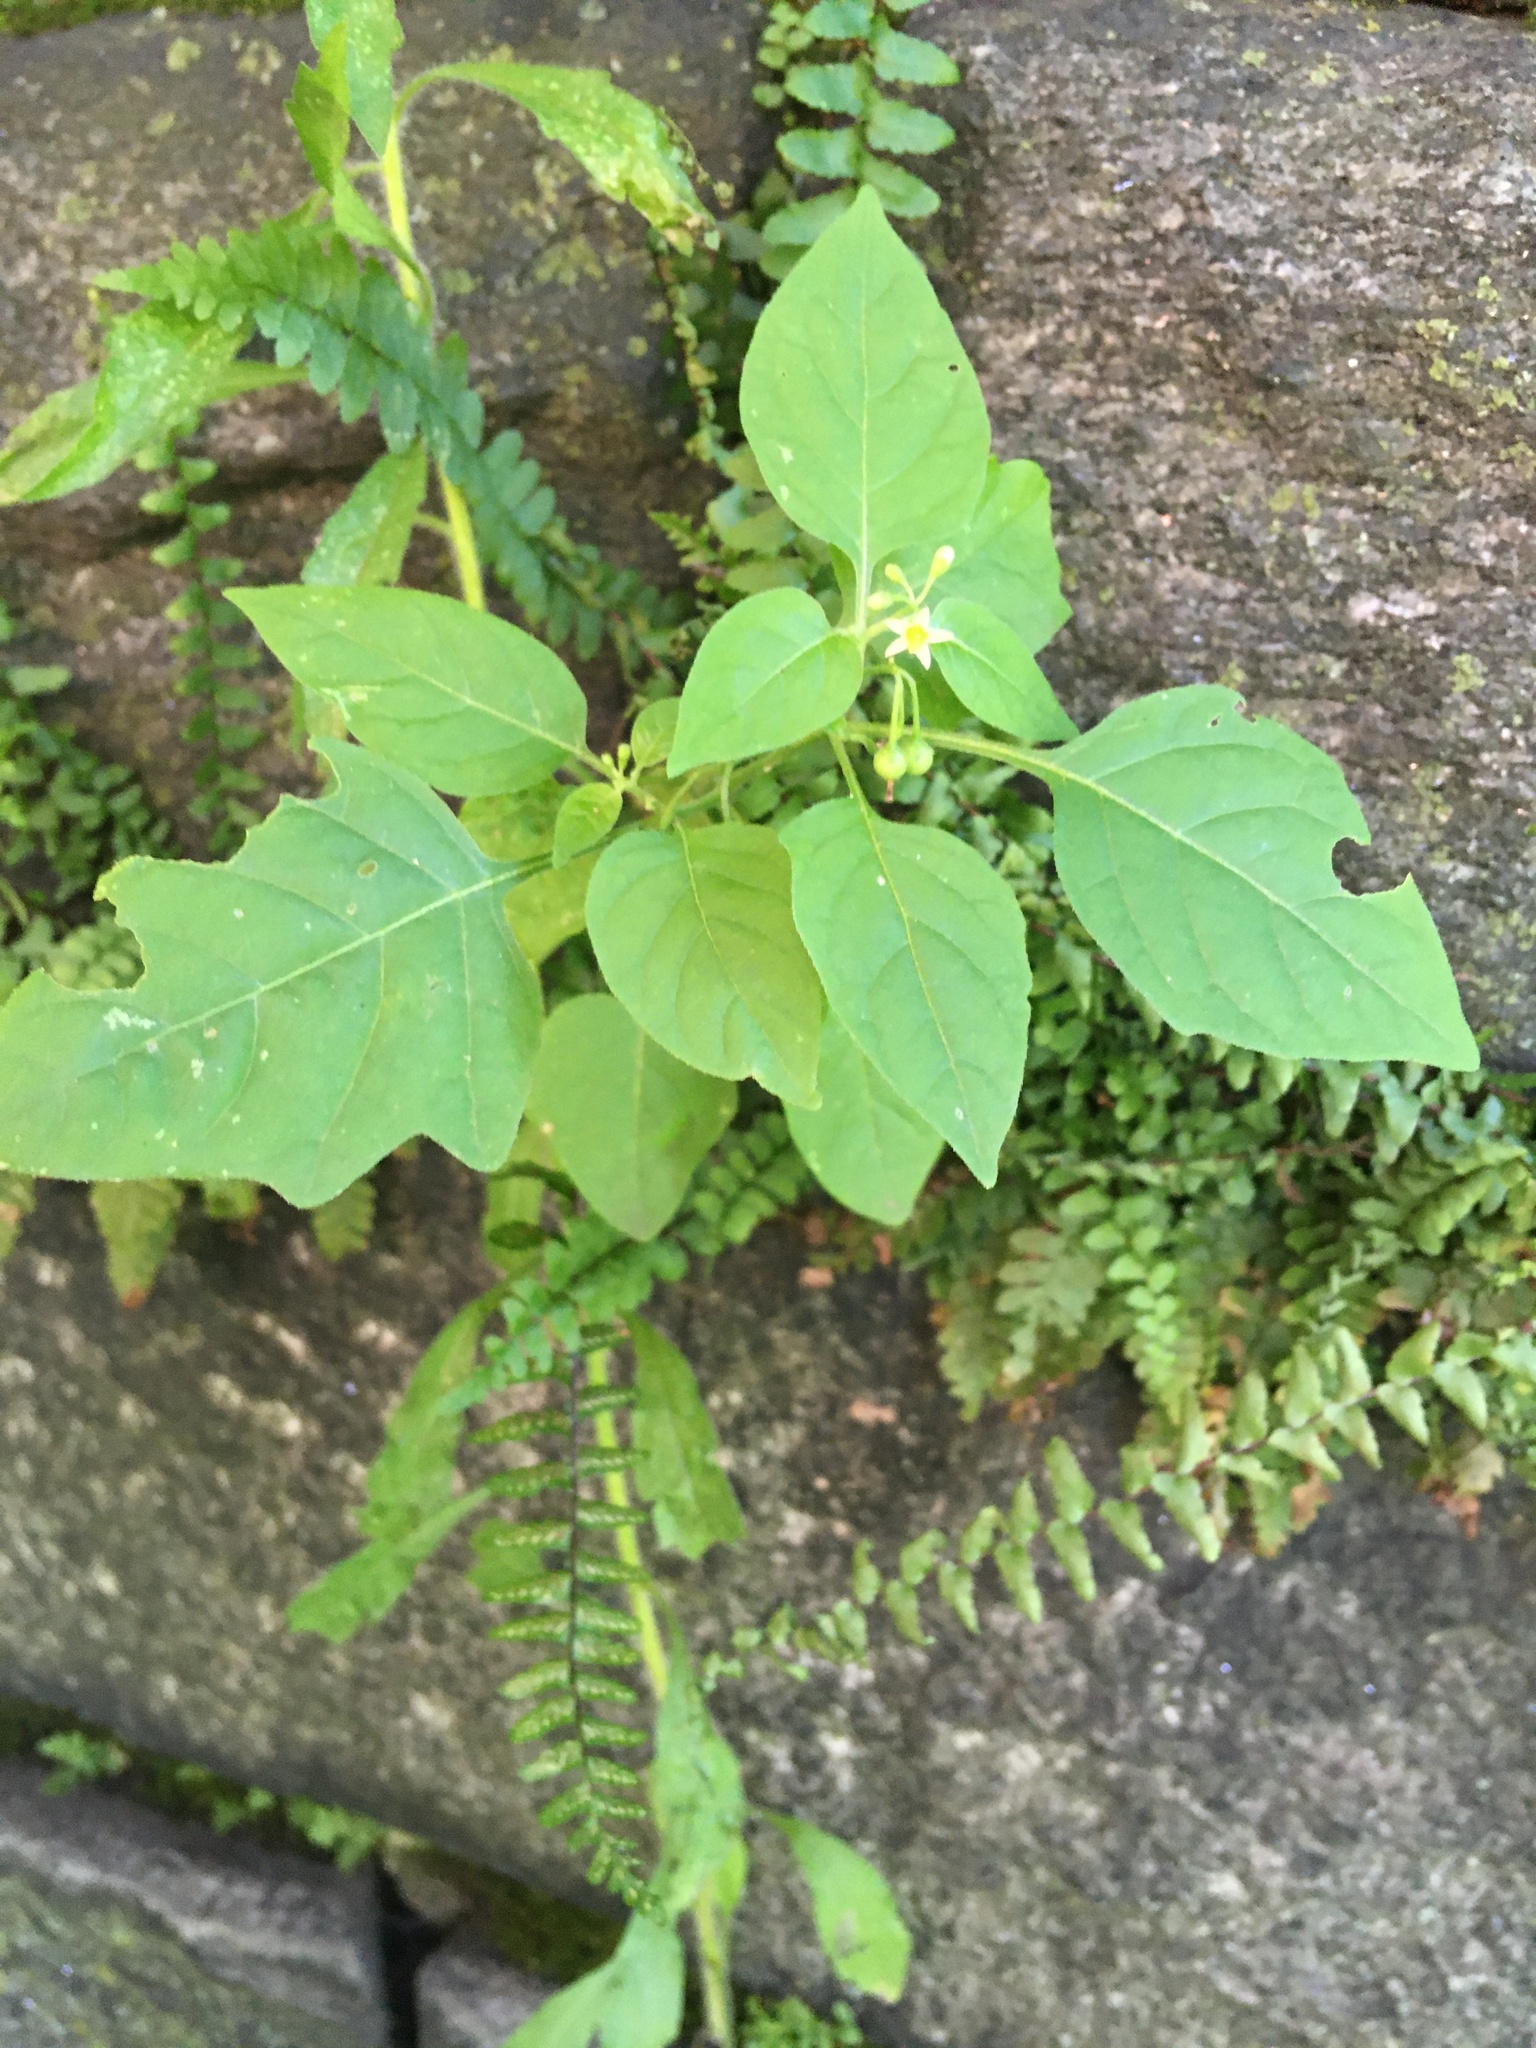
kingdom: Plantae
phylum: Tracheophyta
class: Magnoliopsida
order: Solanales
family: Solanaceae
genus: Solanum
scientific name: Solanum emulans
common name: Eastern black nightshade
